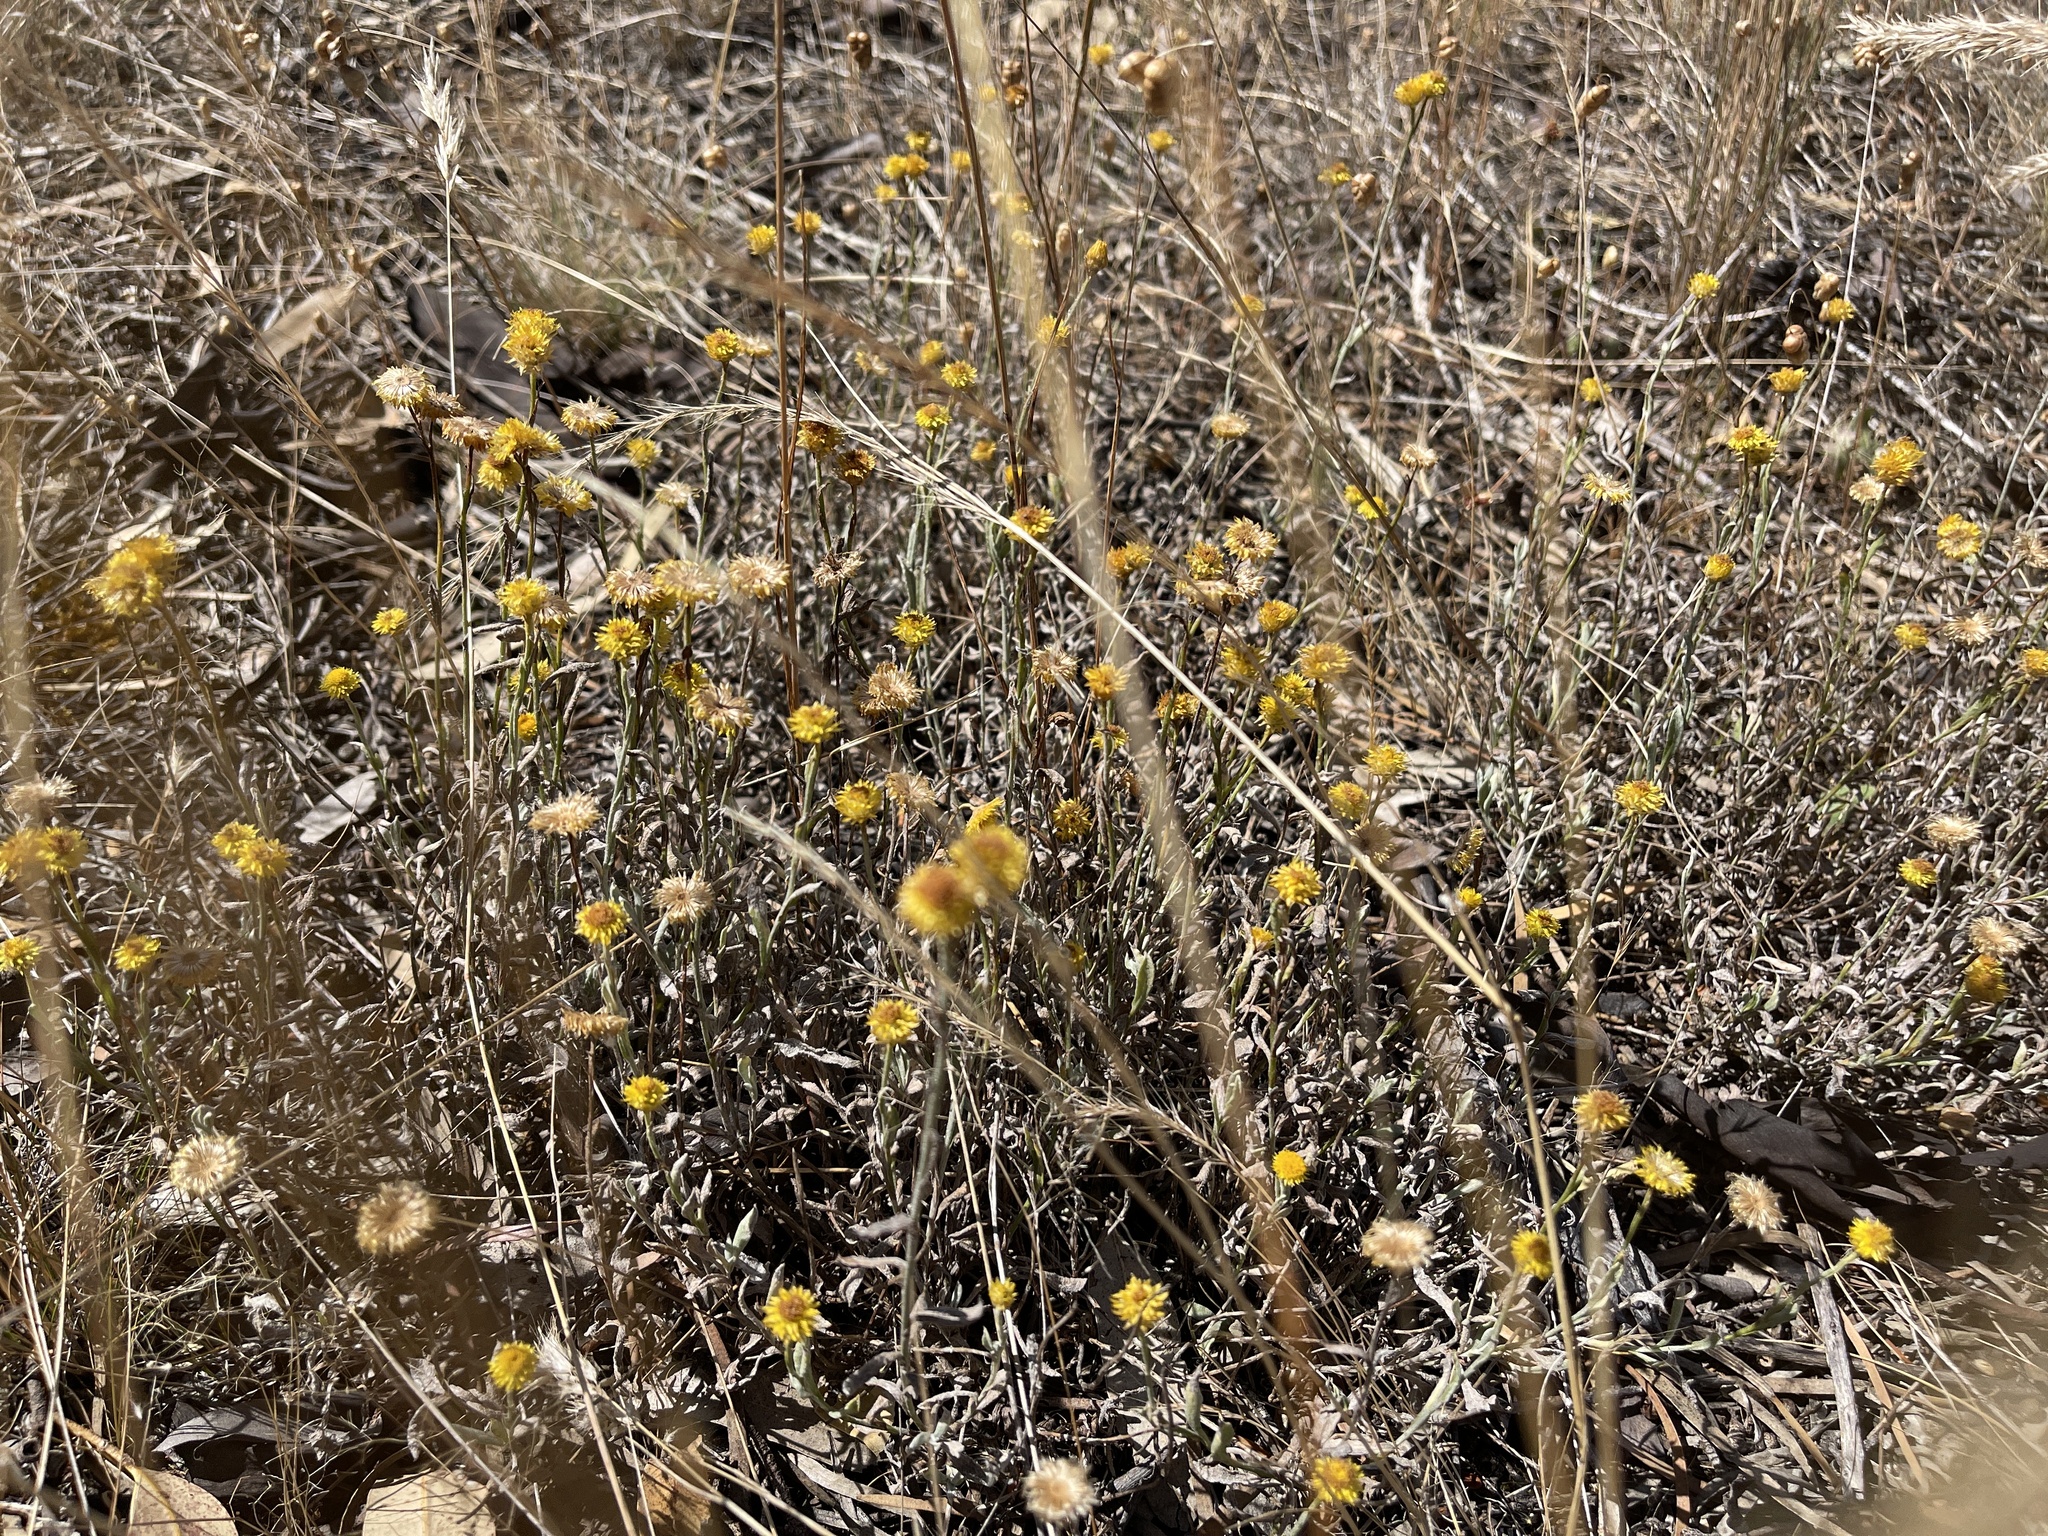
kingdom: Plantae
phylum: Tracheophyta
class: Magnoliopsida
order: Asterales
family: Asteraceae
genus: Chrysocephalum
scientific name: Chrysocephalum apiculatum
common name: Common everlasting
